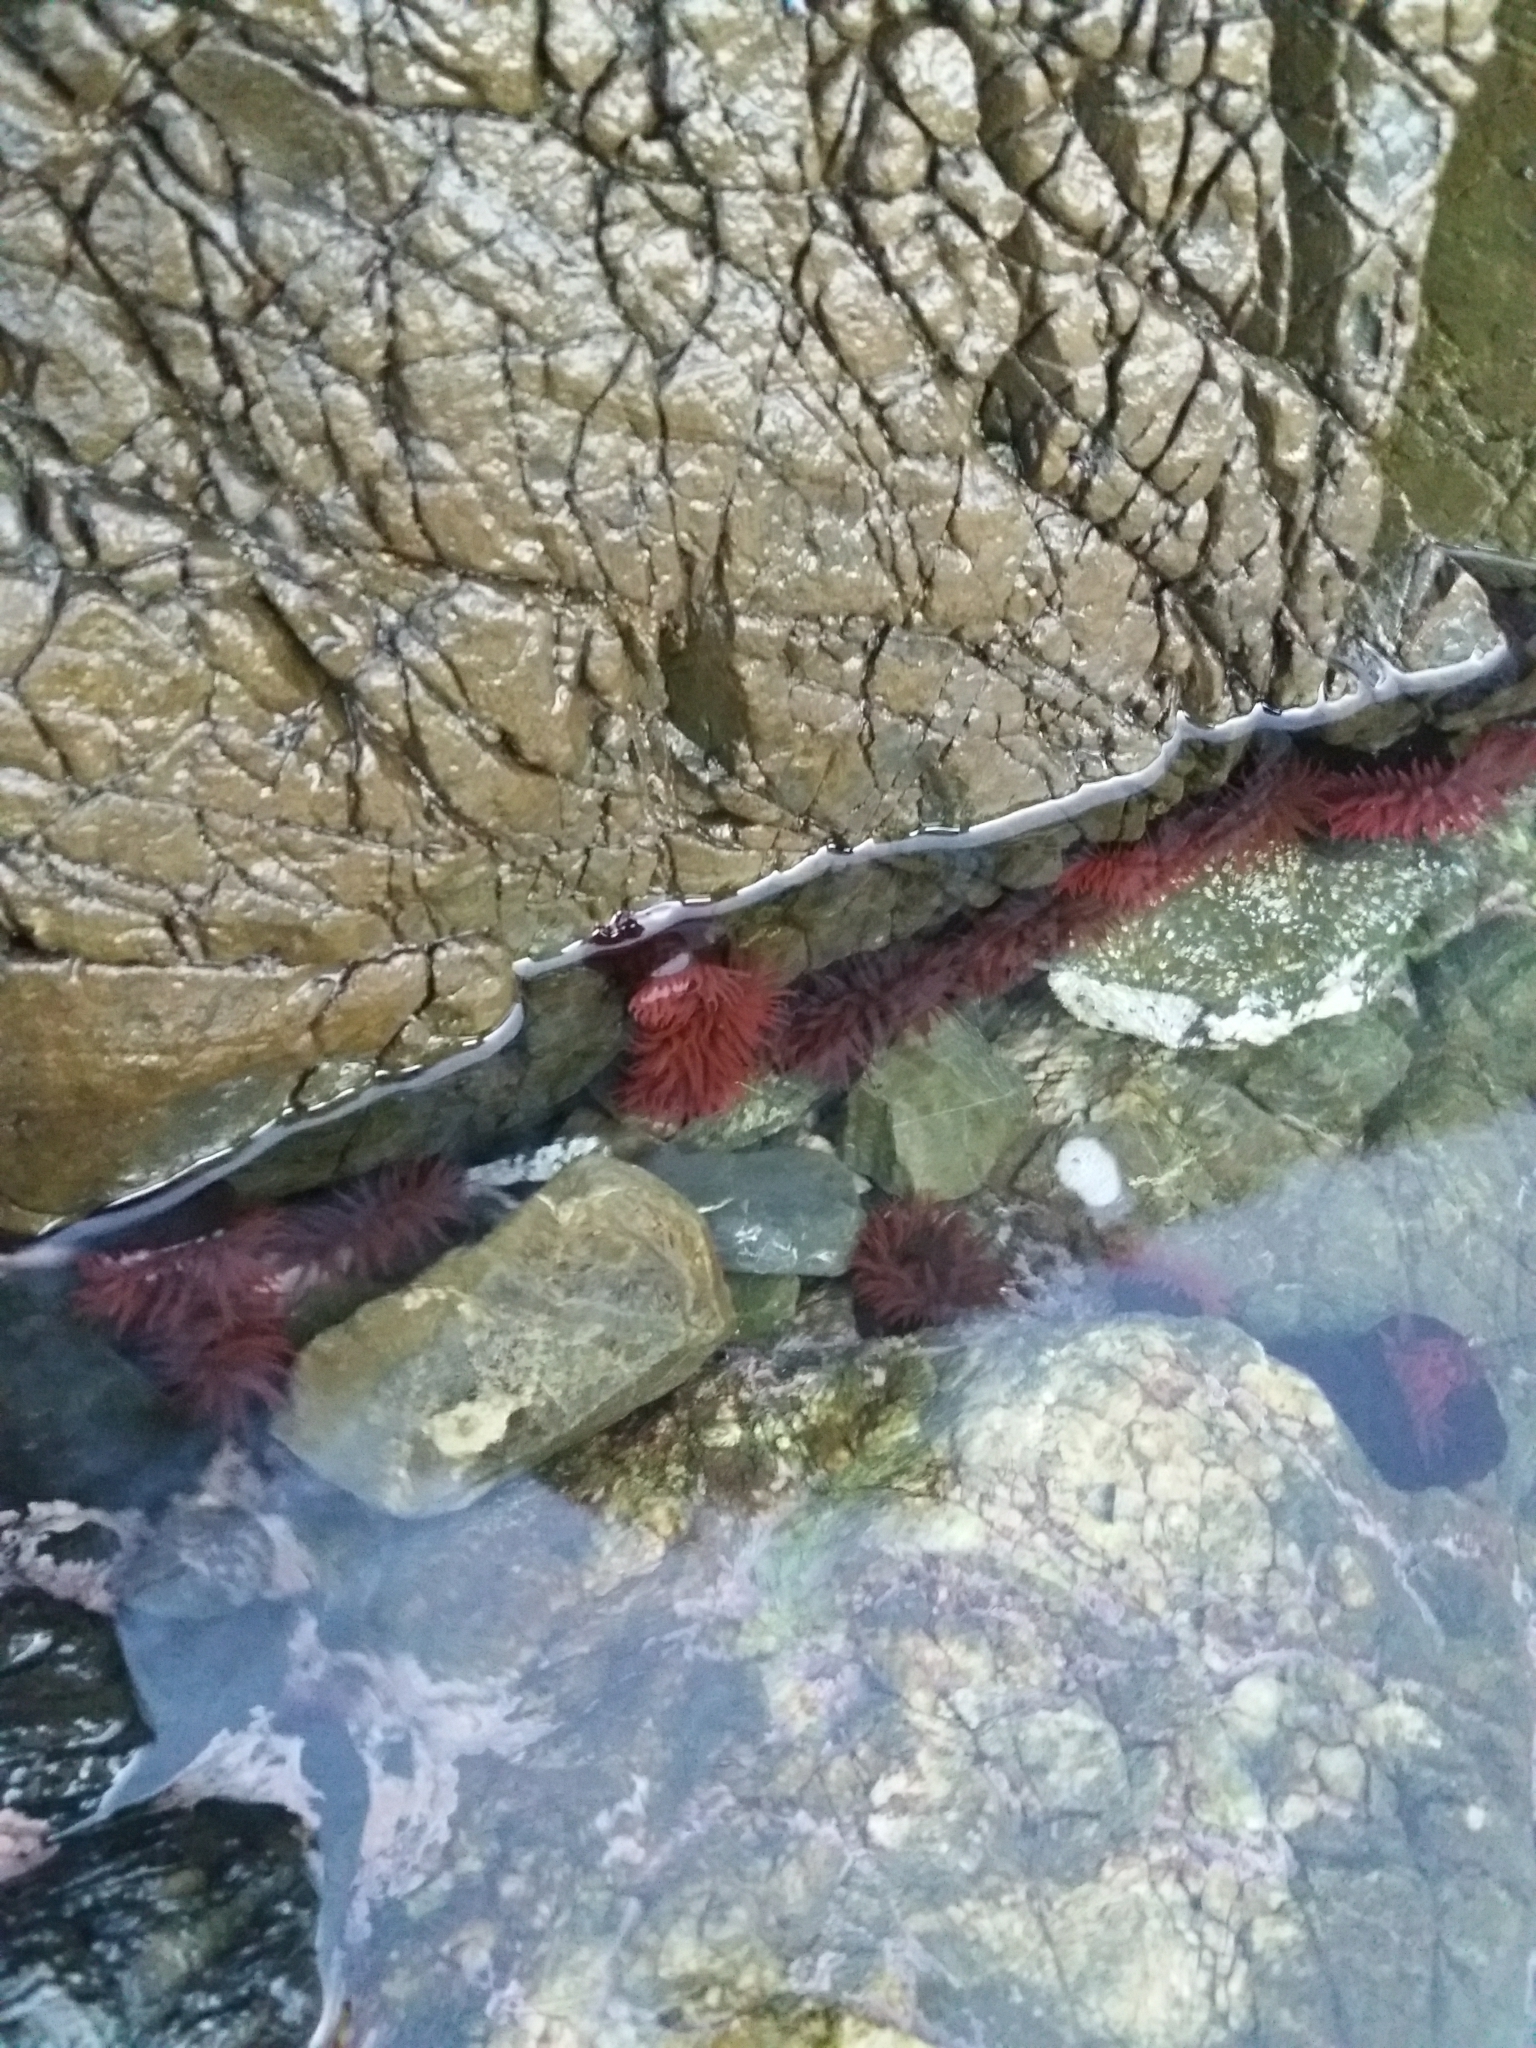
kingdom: Animalia
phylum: Cnidaria
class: Anthozoa
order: Actiniaria
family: Actiniidae
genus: Actinia
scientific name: Actinia tenebrosa
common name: Waratah anemone
